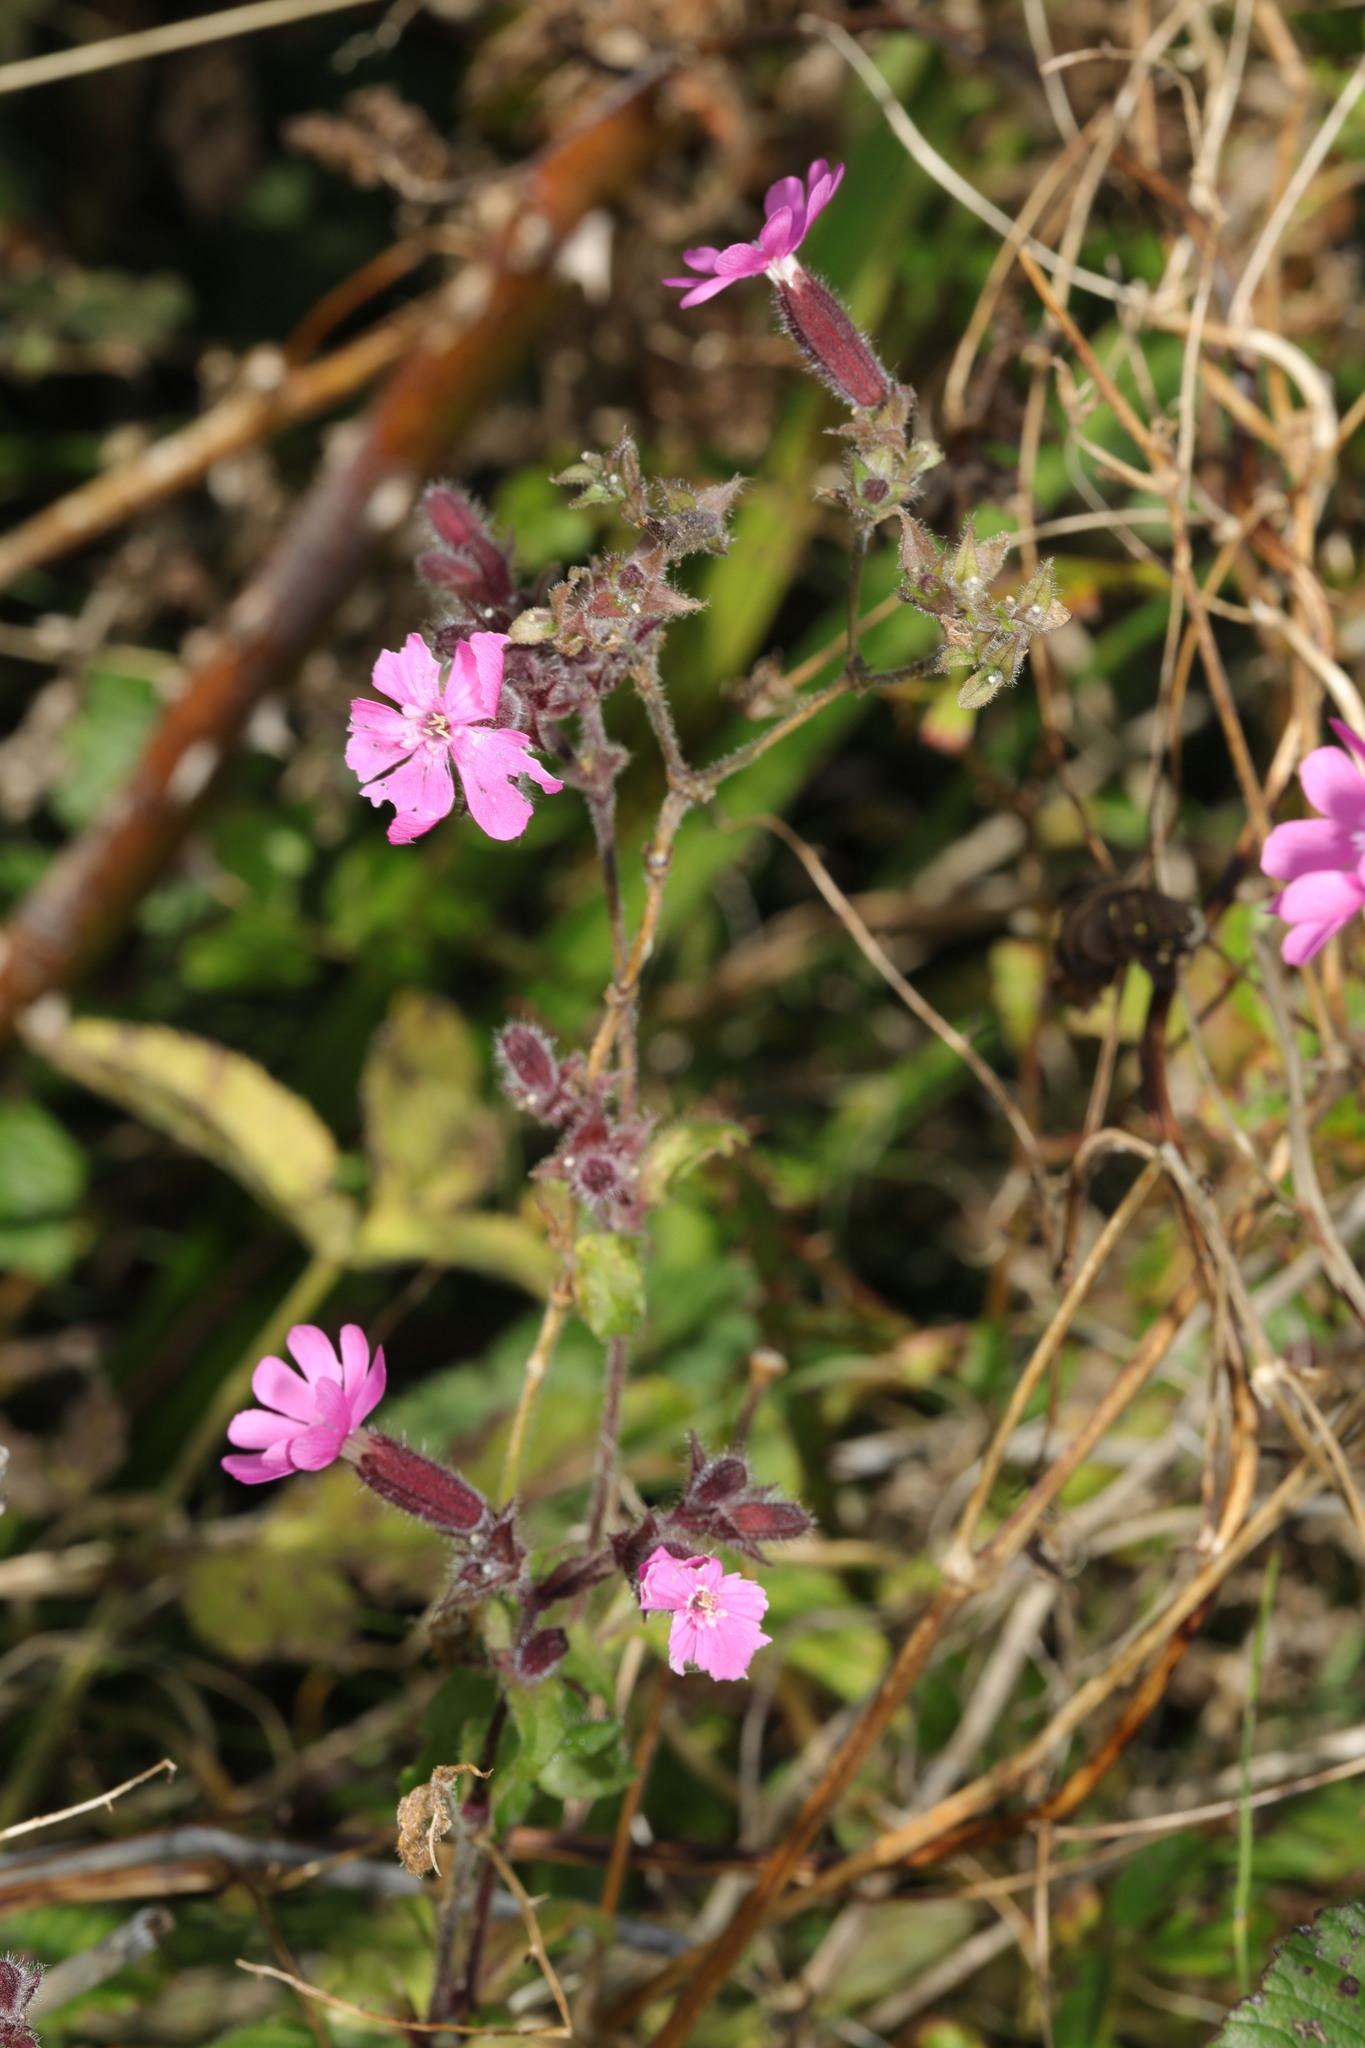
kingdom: Plantae
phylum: Tracheophyta
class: Magnoliopsida
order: Caryophyllales
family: Caryophyllaceae
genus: Silene
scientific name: Silene dioica
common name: Red campion
